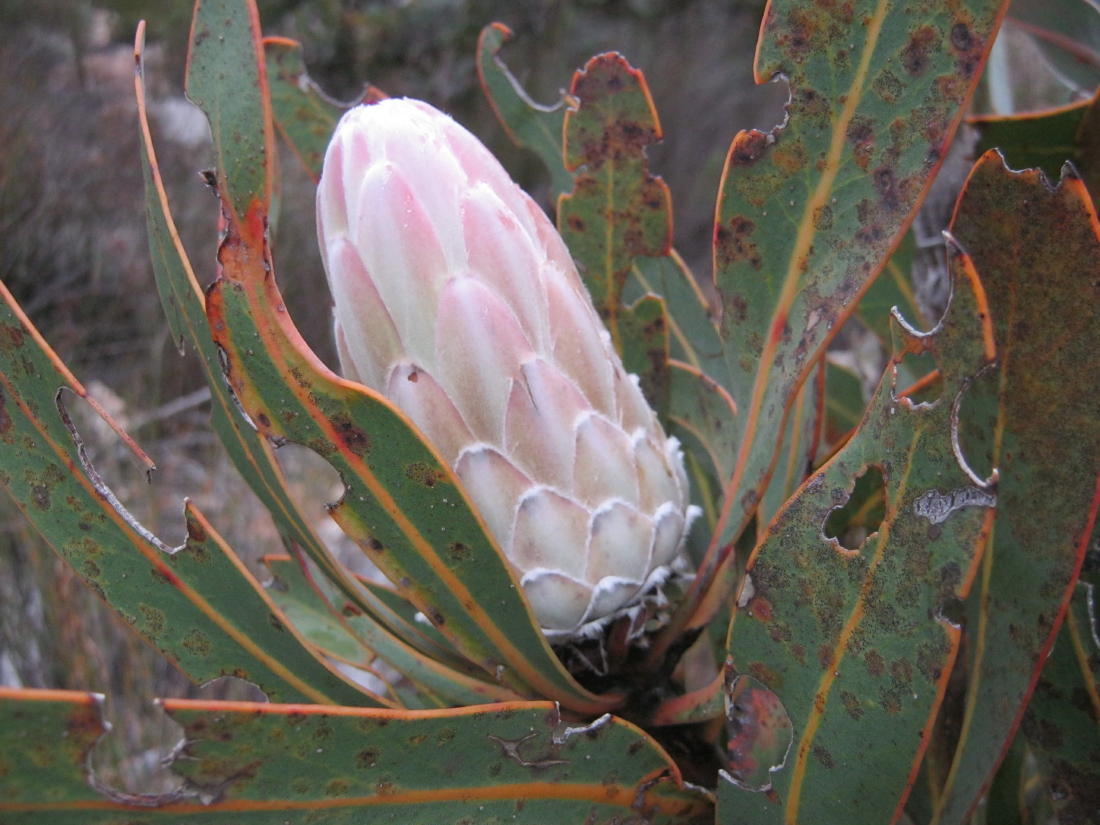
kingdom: Plantae
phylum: Tracheophyta
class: Magnoliopsida
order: Proteales
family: Proteaceae
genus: Protea
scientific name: Protea lorifolia
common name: Strap-leaved protea
